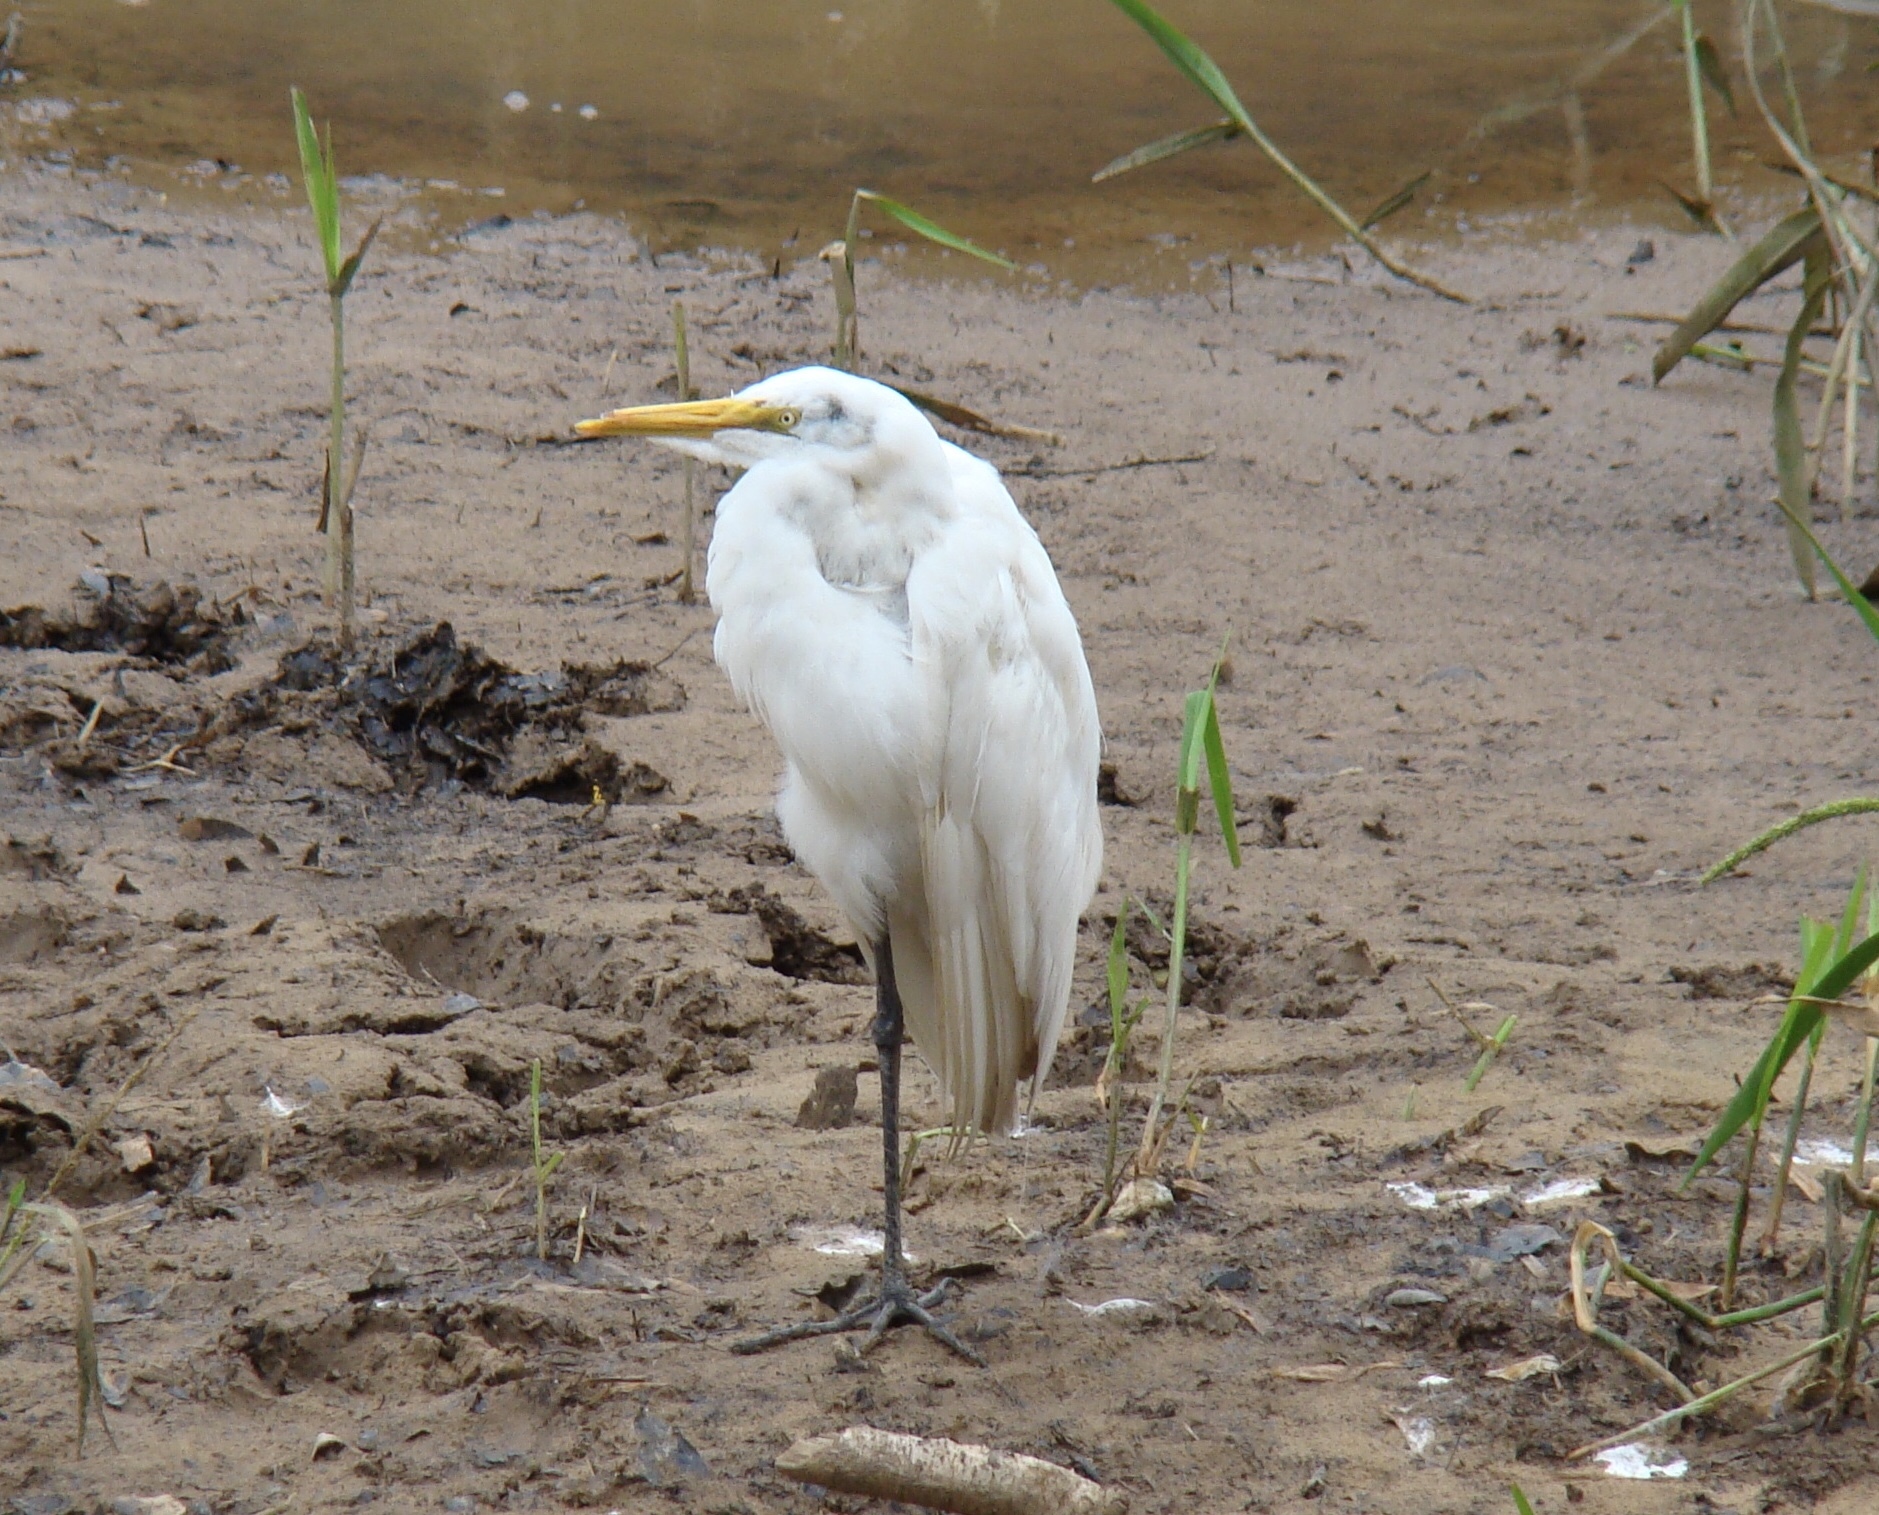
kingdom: Animalia
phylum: Chordata
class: Aves
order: Pelecaniformes
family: Ardeidae
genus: Ardea
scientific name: Ardea alba
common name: Great egret
